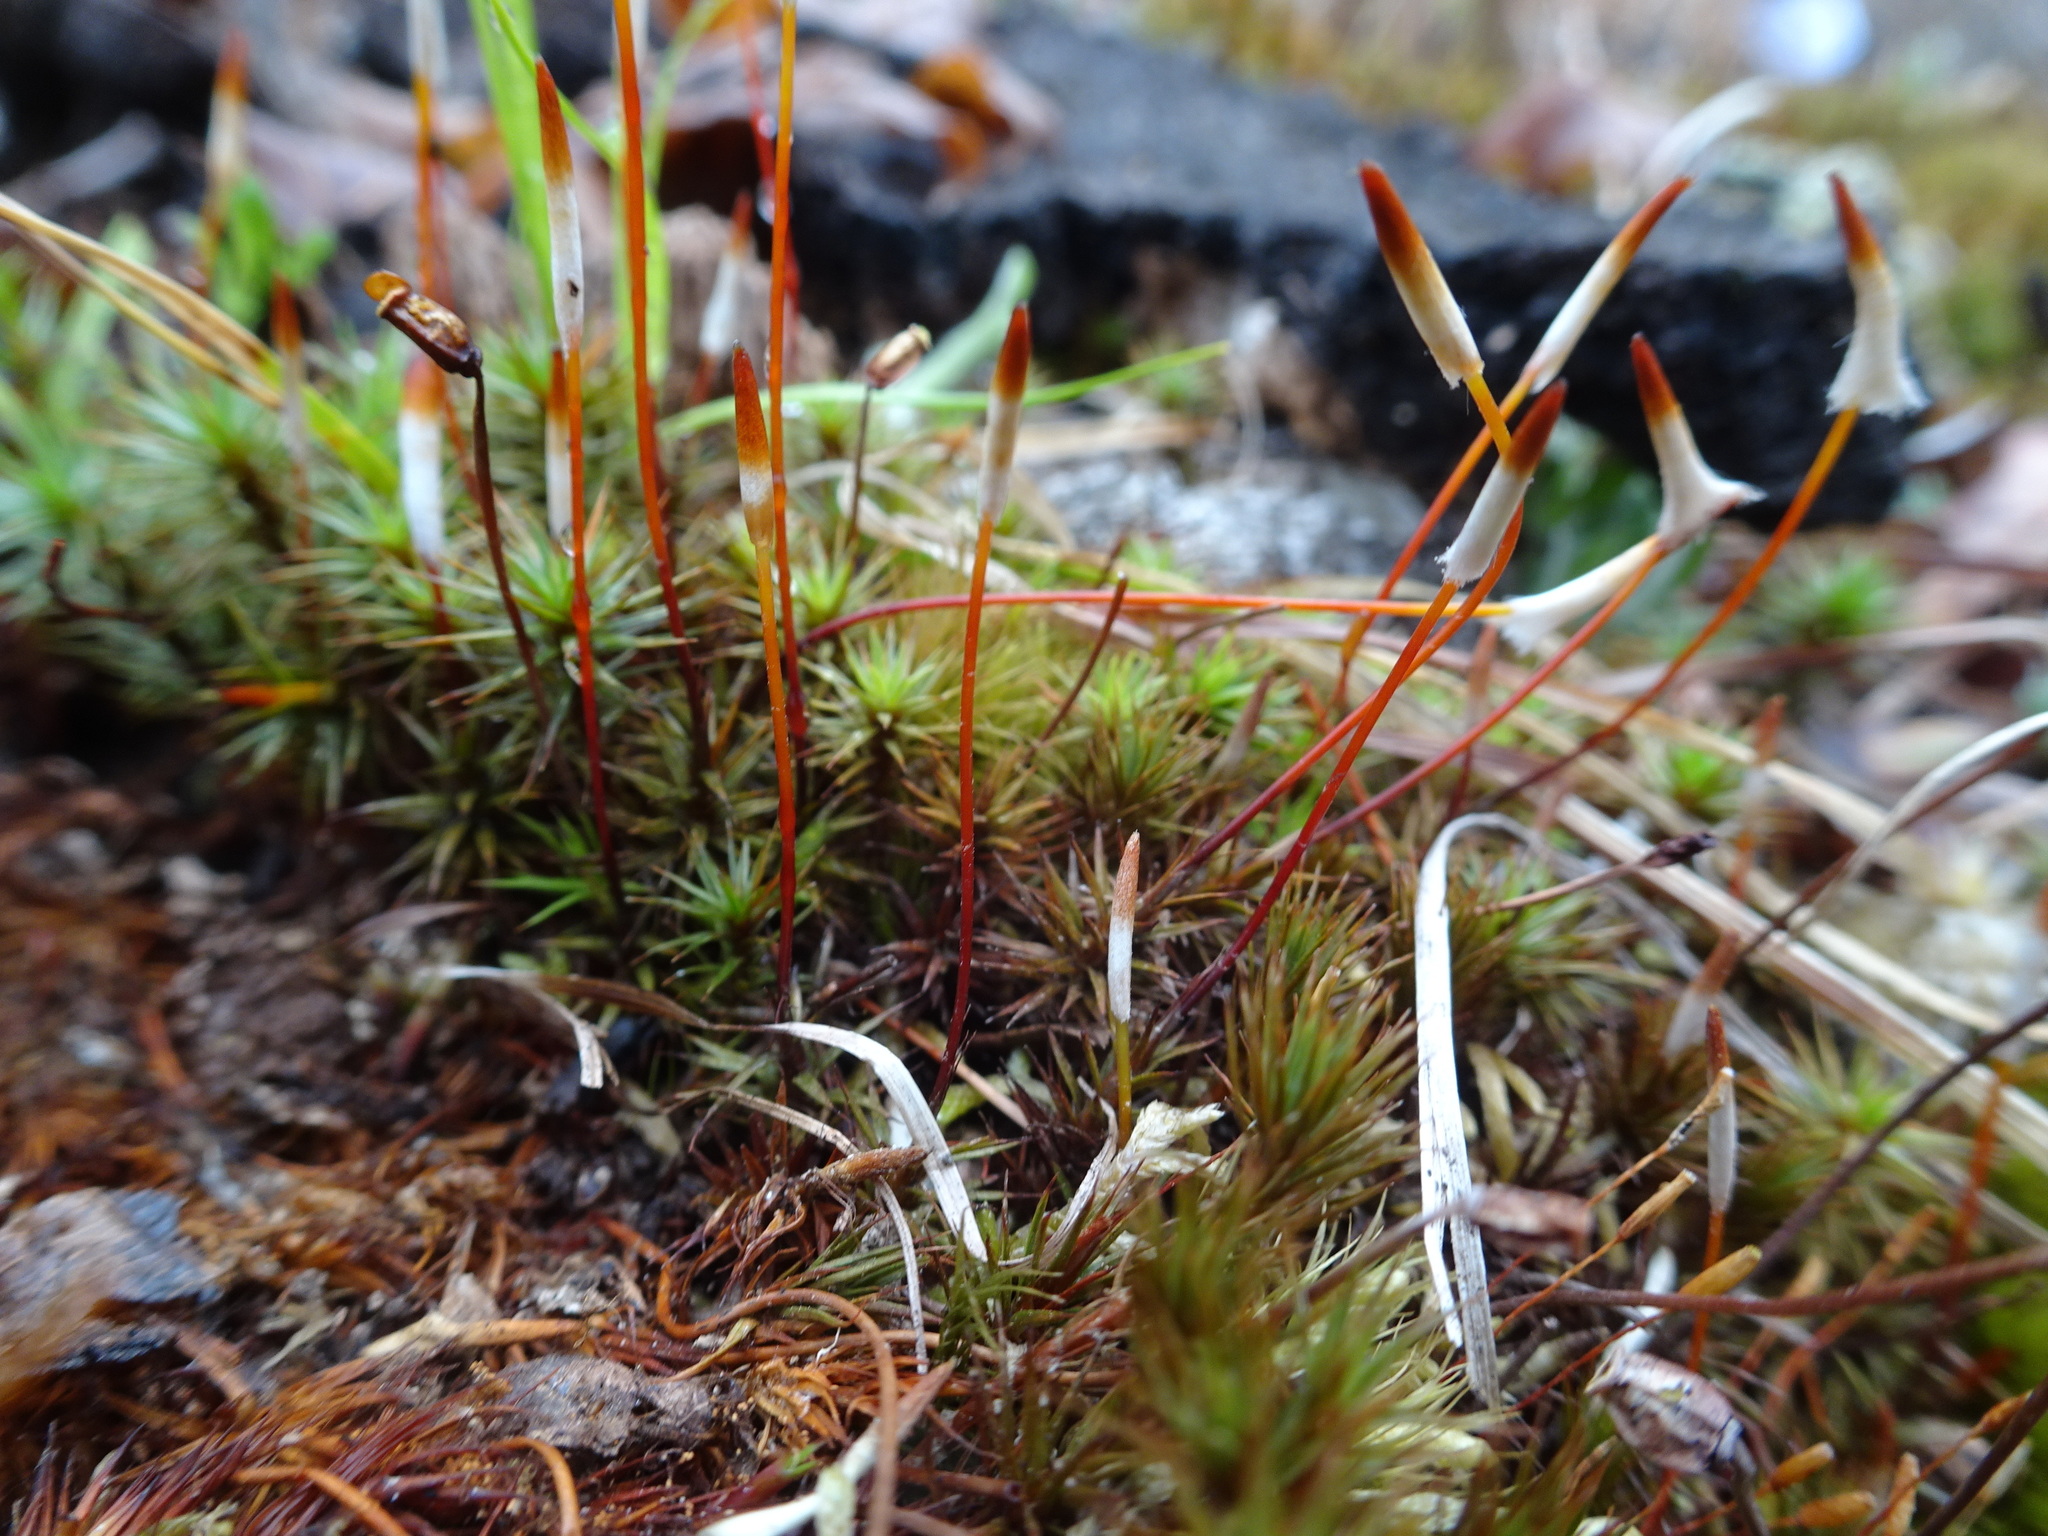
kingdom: Plantae
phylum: Bryophyta
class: Polytrichopsida
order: Polytrichales
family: Polytrichaceae
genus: Polytrichum
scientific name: Polytrichum juniperinum
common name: Juniper haircap moss
